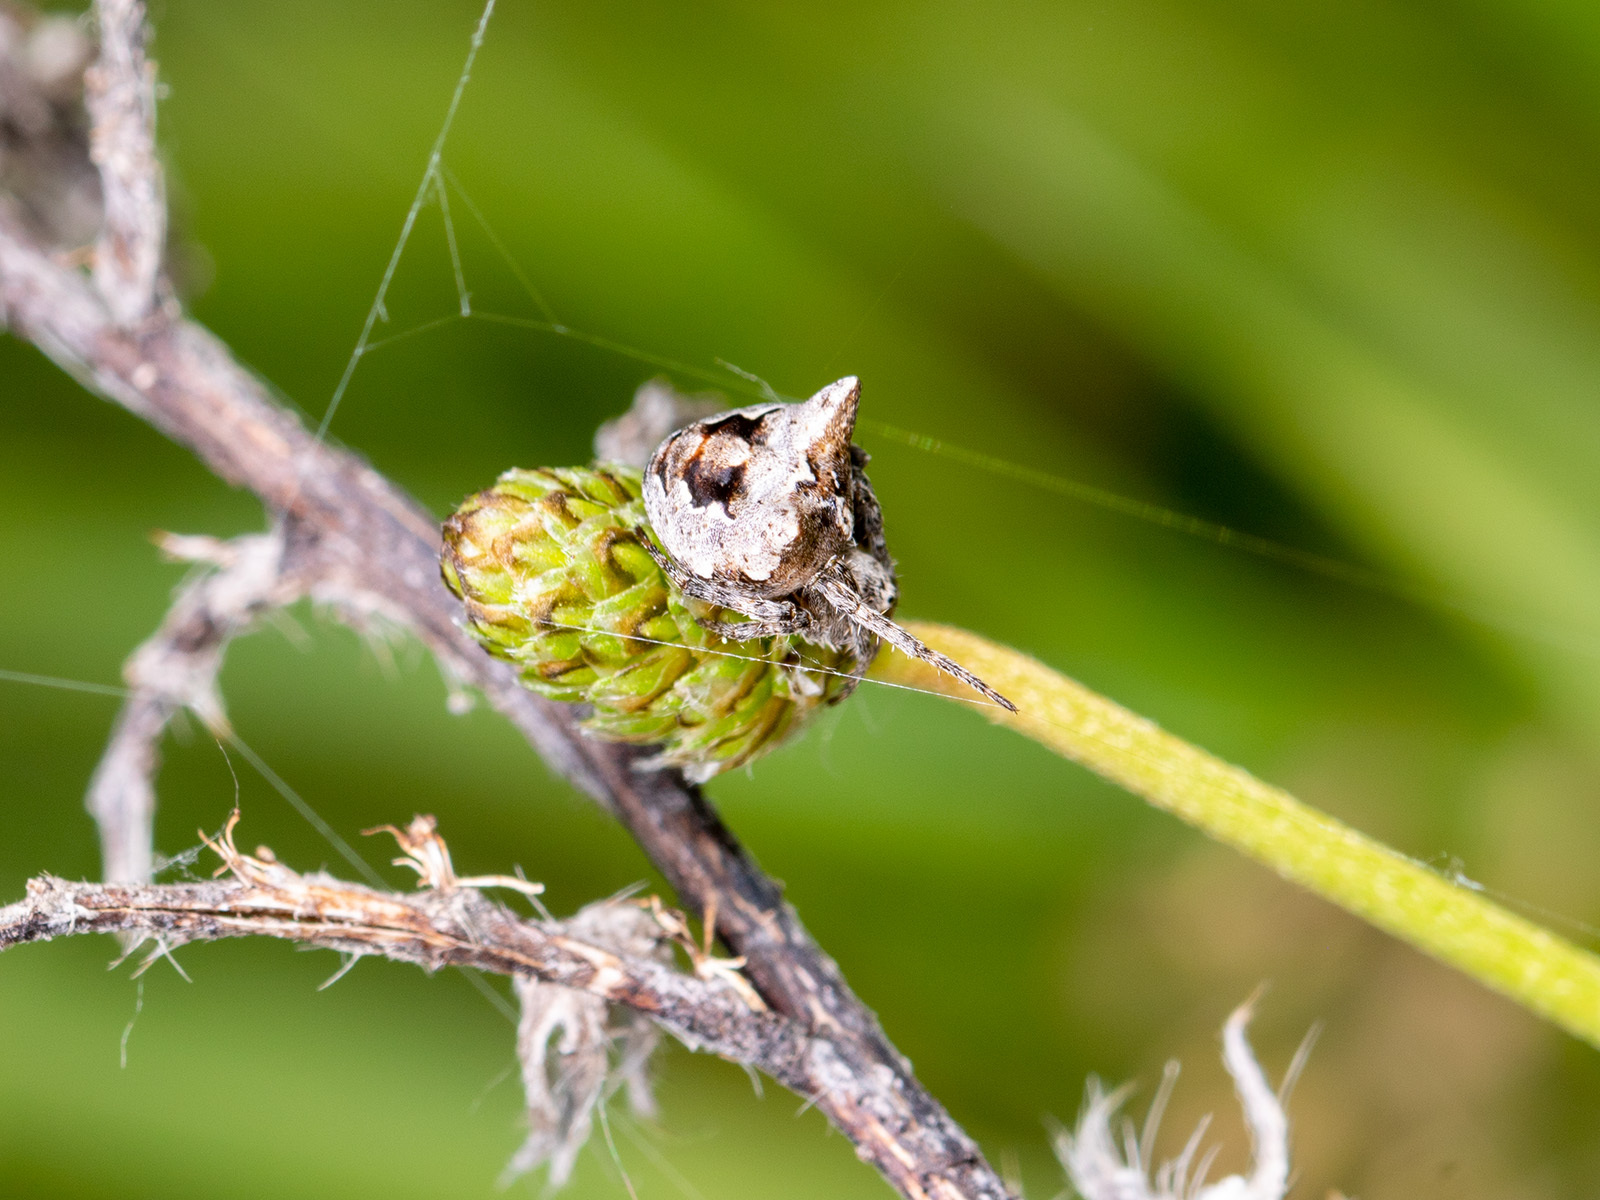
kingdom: Animalia
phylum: Arthropoda
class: Arachnida
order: Araneae
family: Araneidae
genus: Gibbaranea
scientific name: Gibbaranea ullrichi
